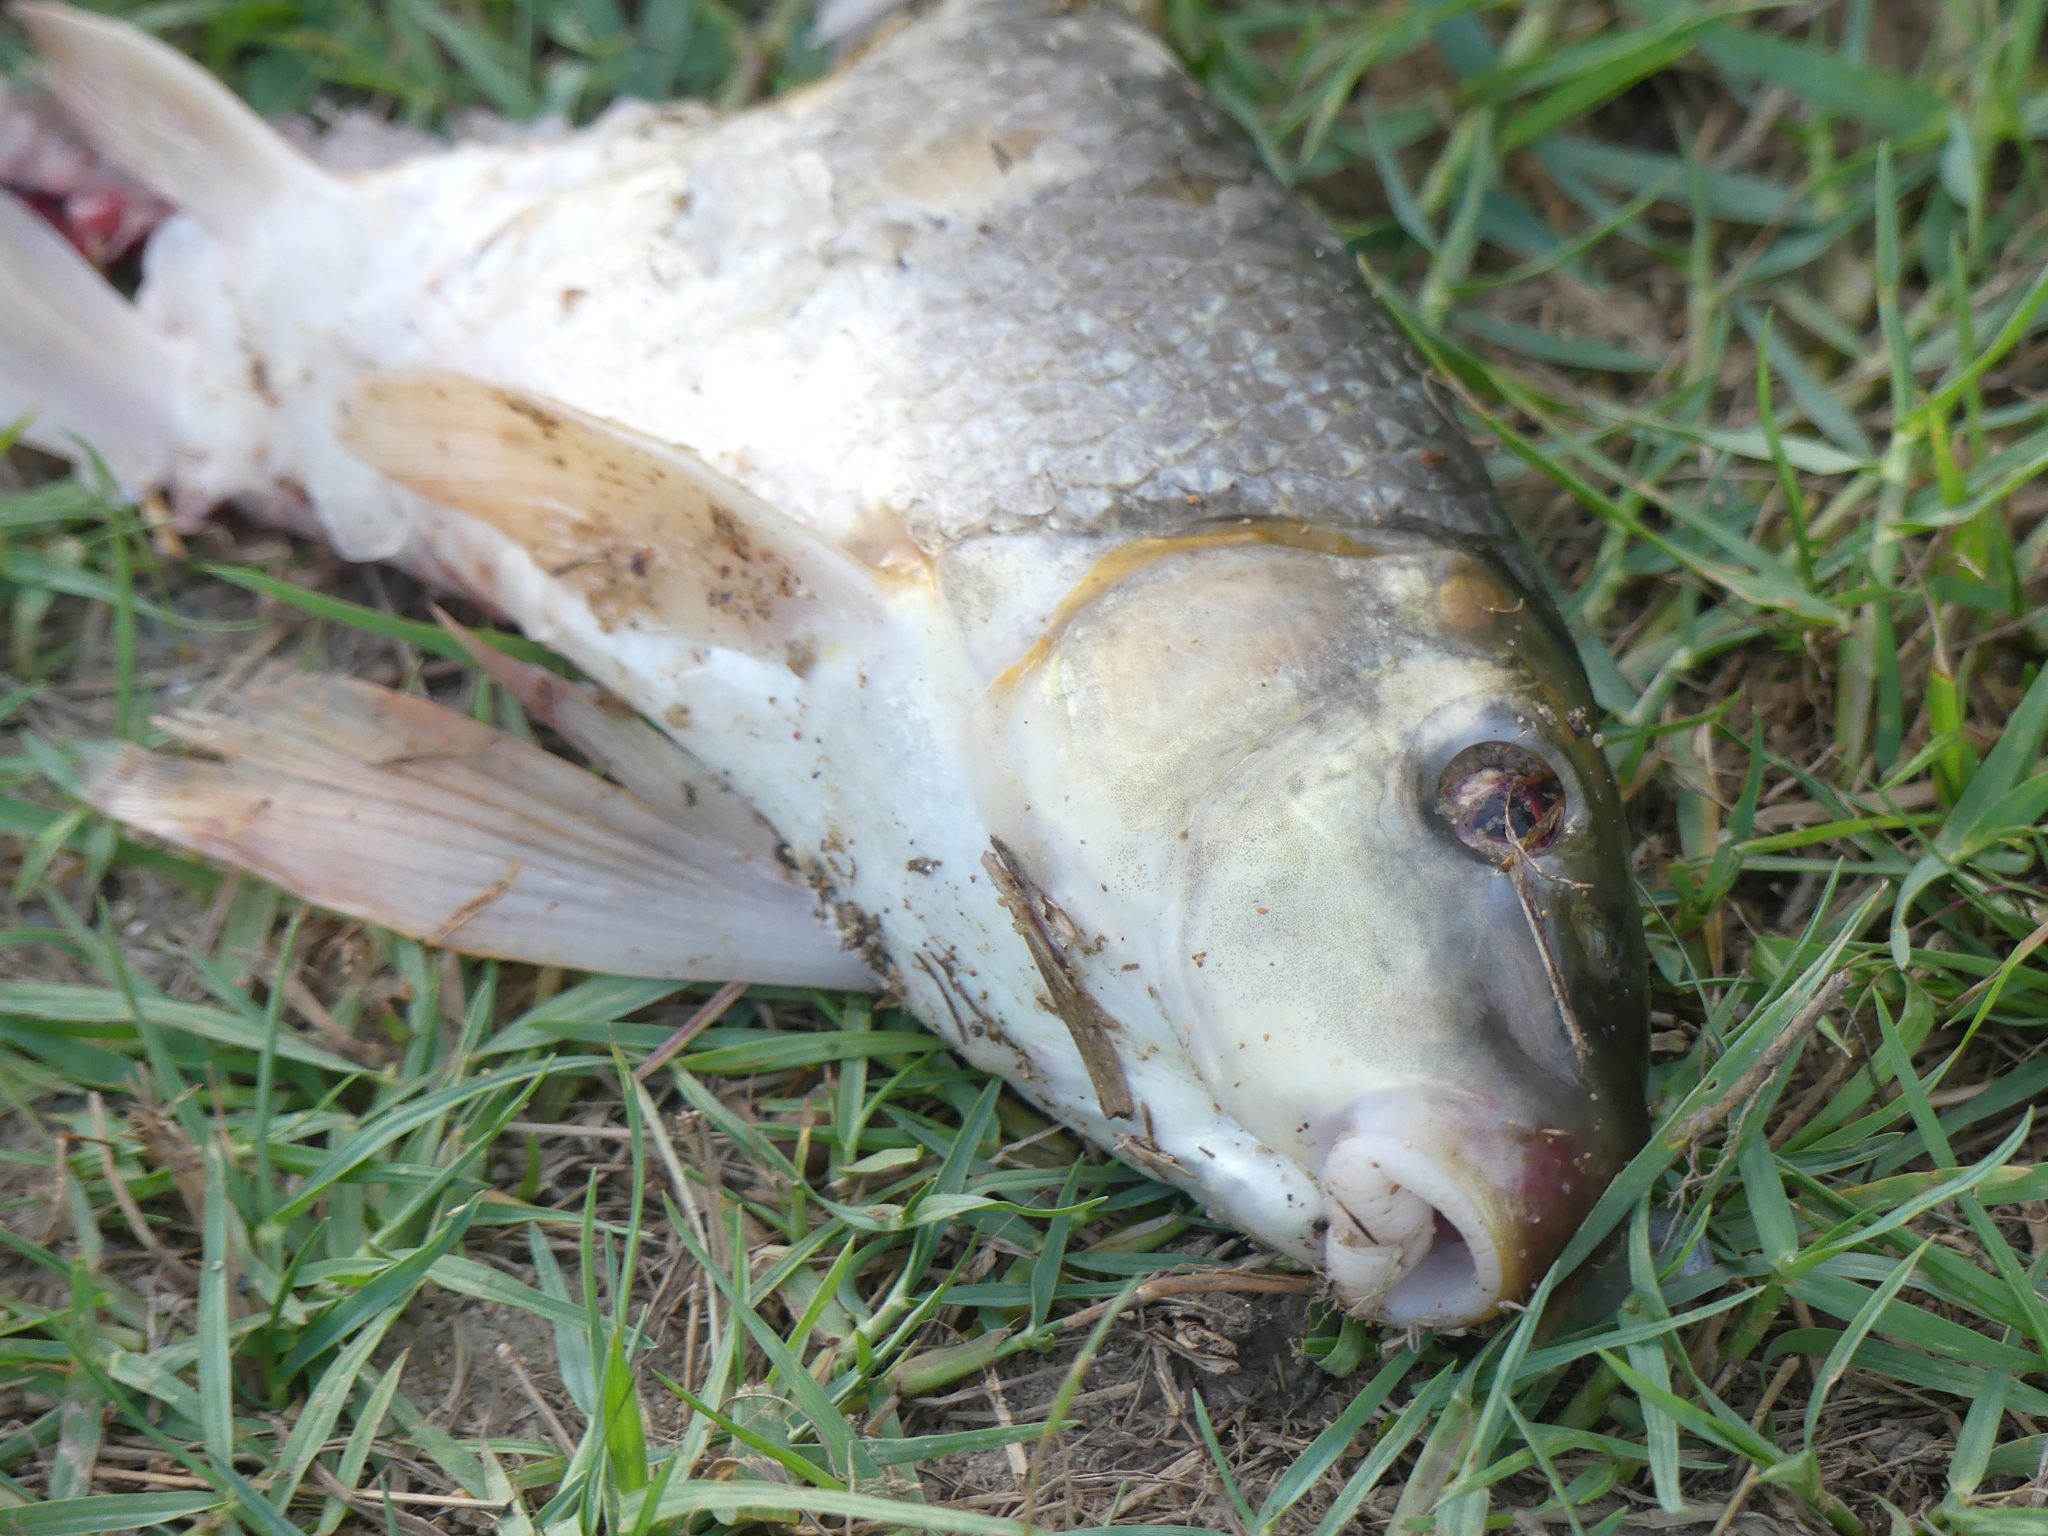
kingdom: Animalia
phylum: Chordata
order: Cypriniformes
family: Catostomidae
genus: Moxostoma
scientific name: Moxostoma congestum
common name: Gray redhorse
